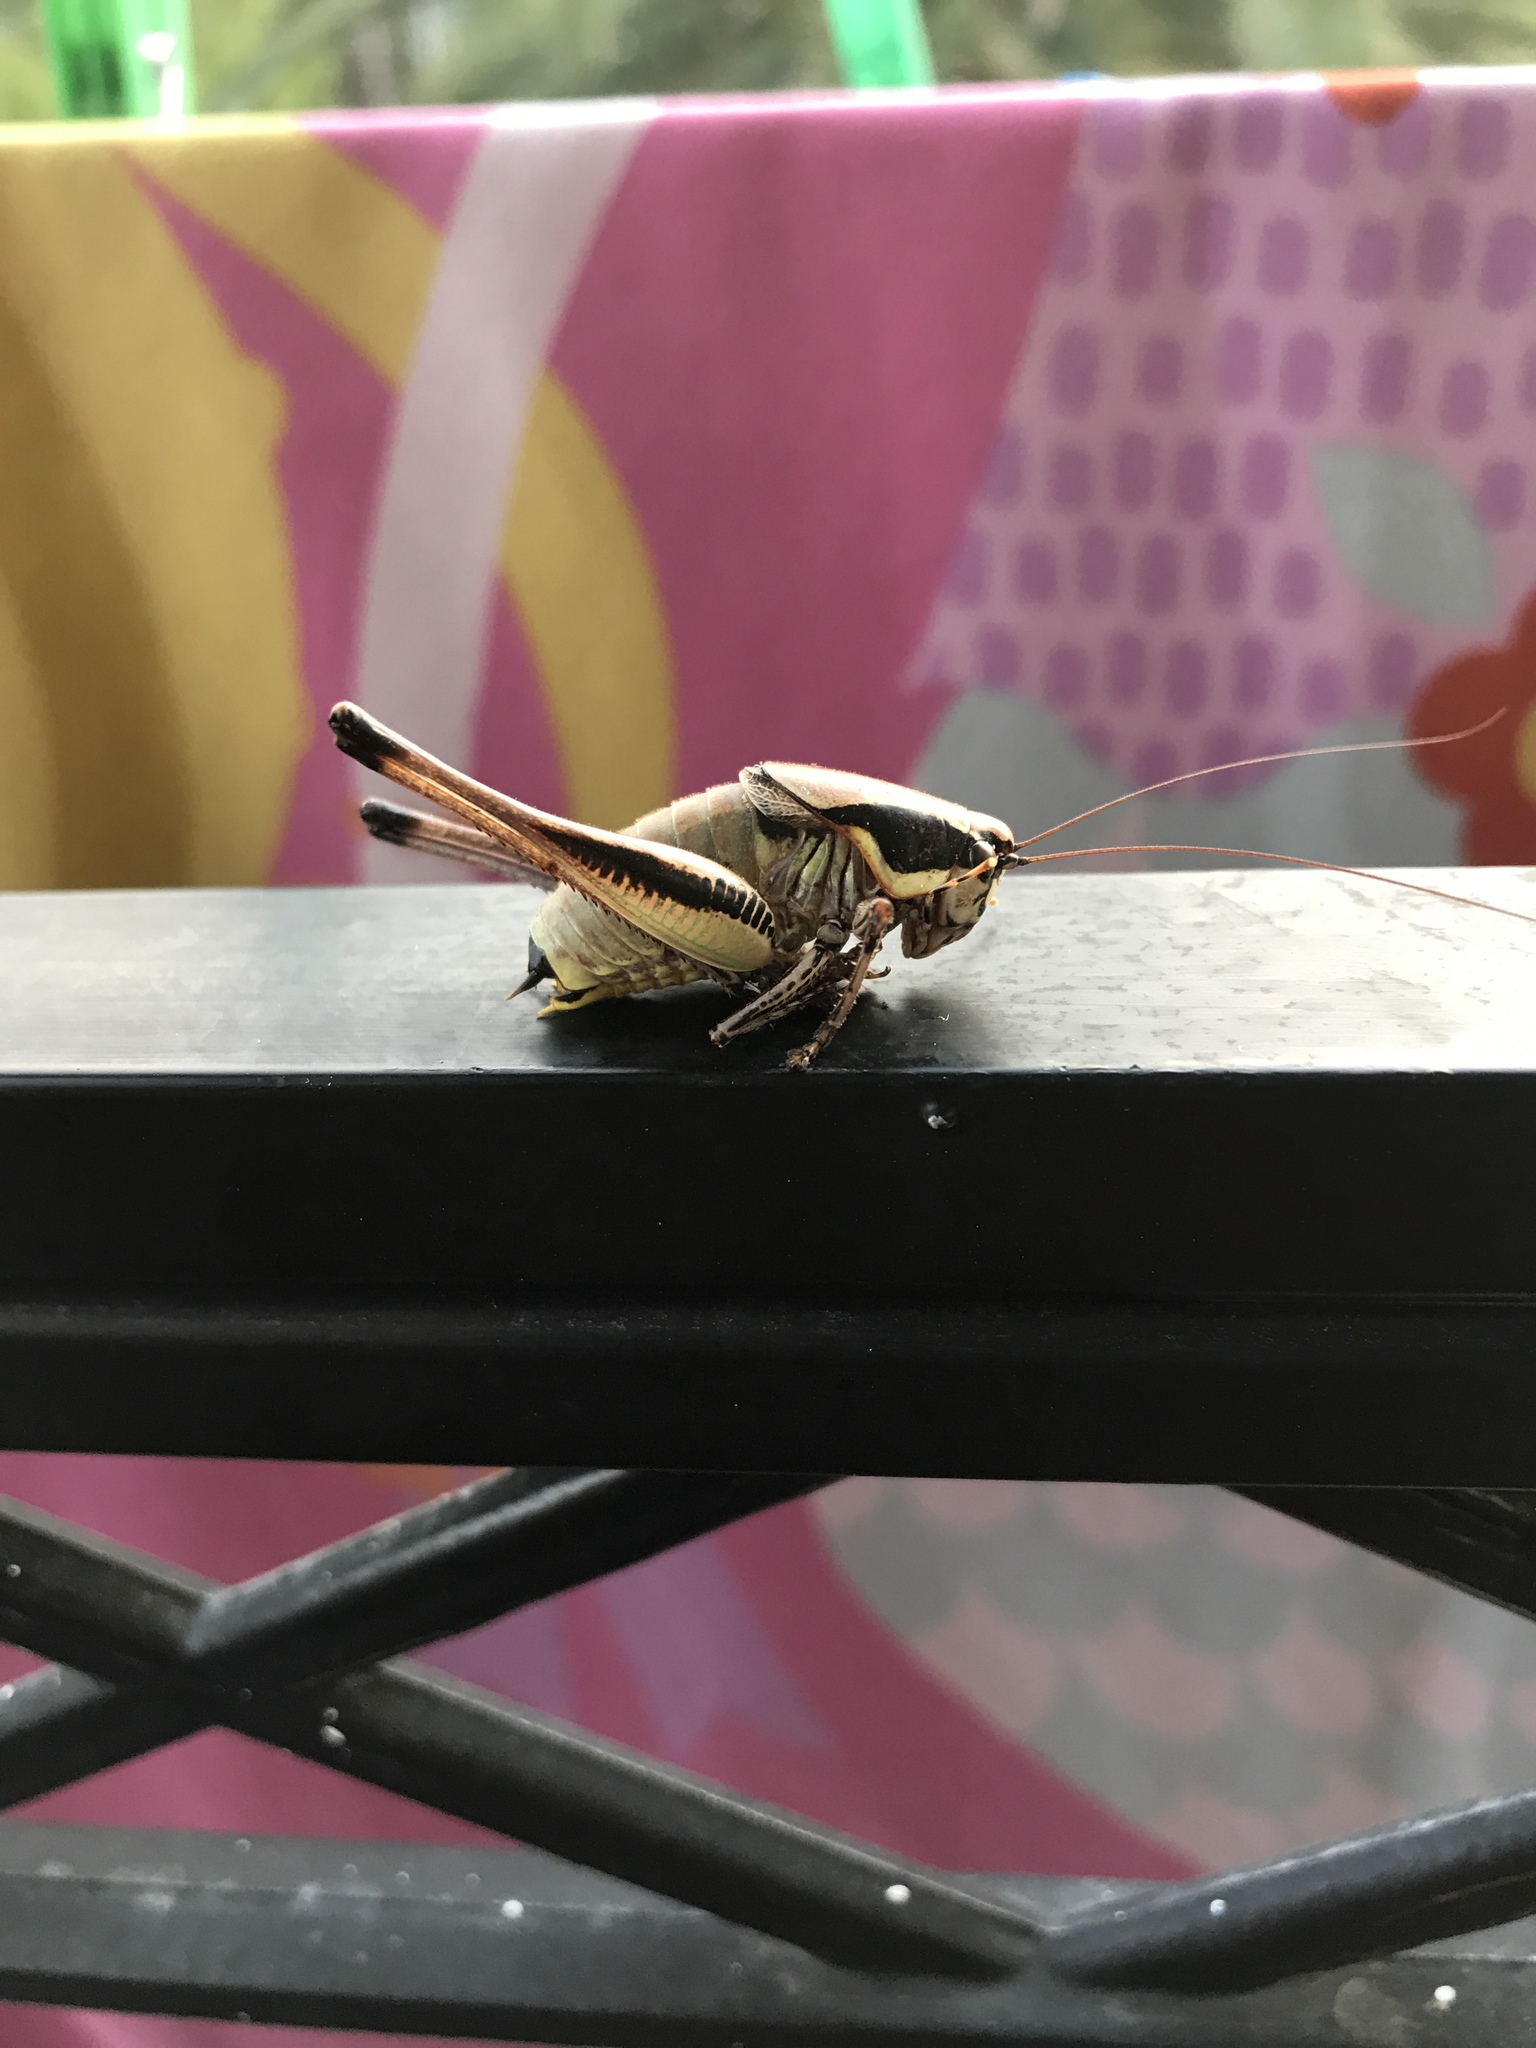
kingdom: Animalia
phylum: Arthropoda
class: Insecta
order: Orthoptera
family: Tettigoniidae
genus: Eupholidoptera
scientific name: Eupholidoptera smyrnensis
